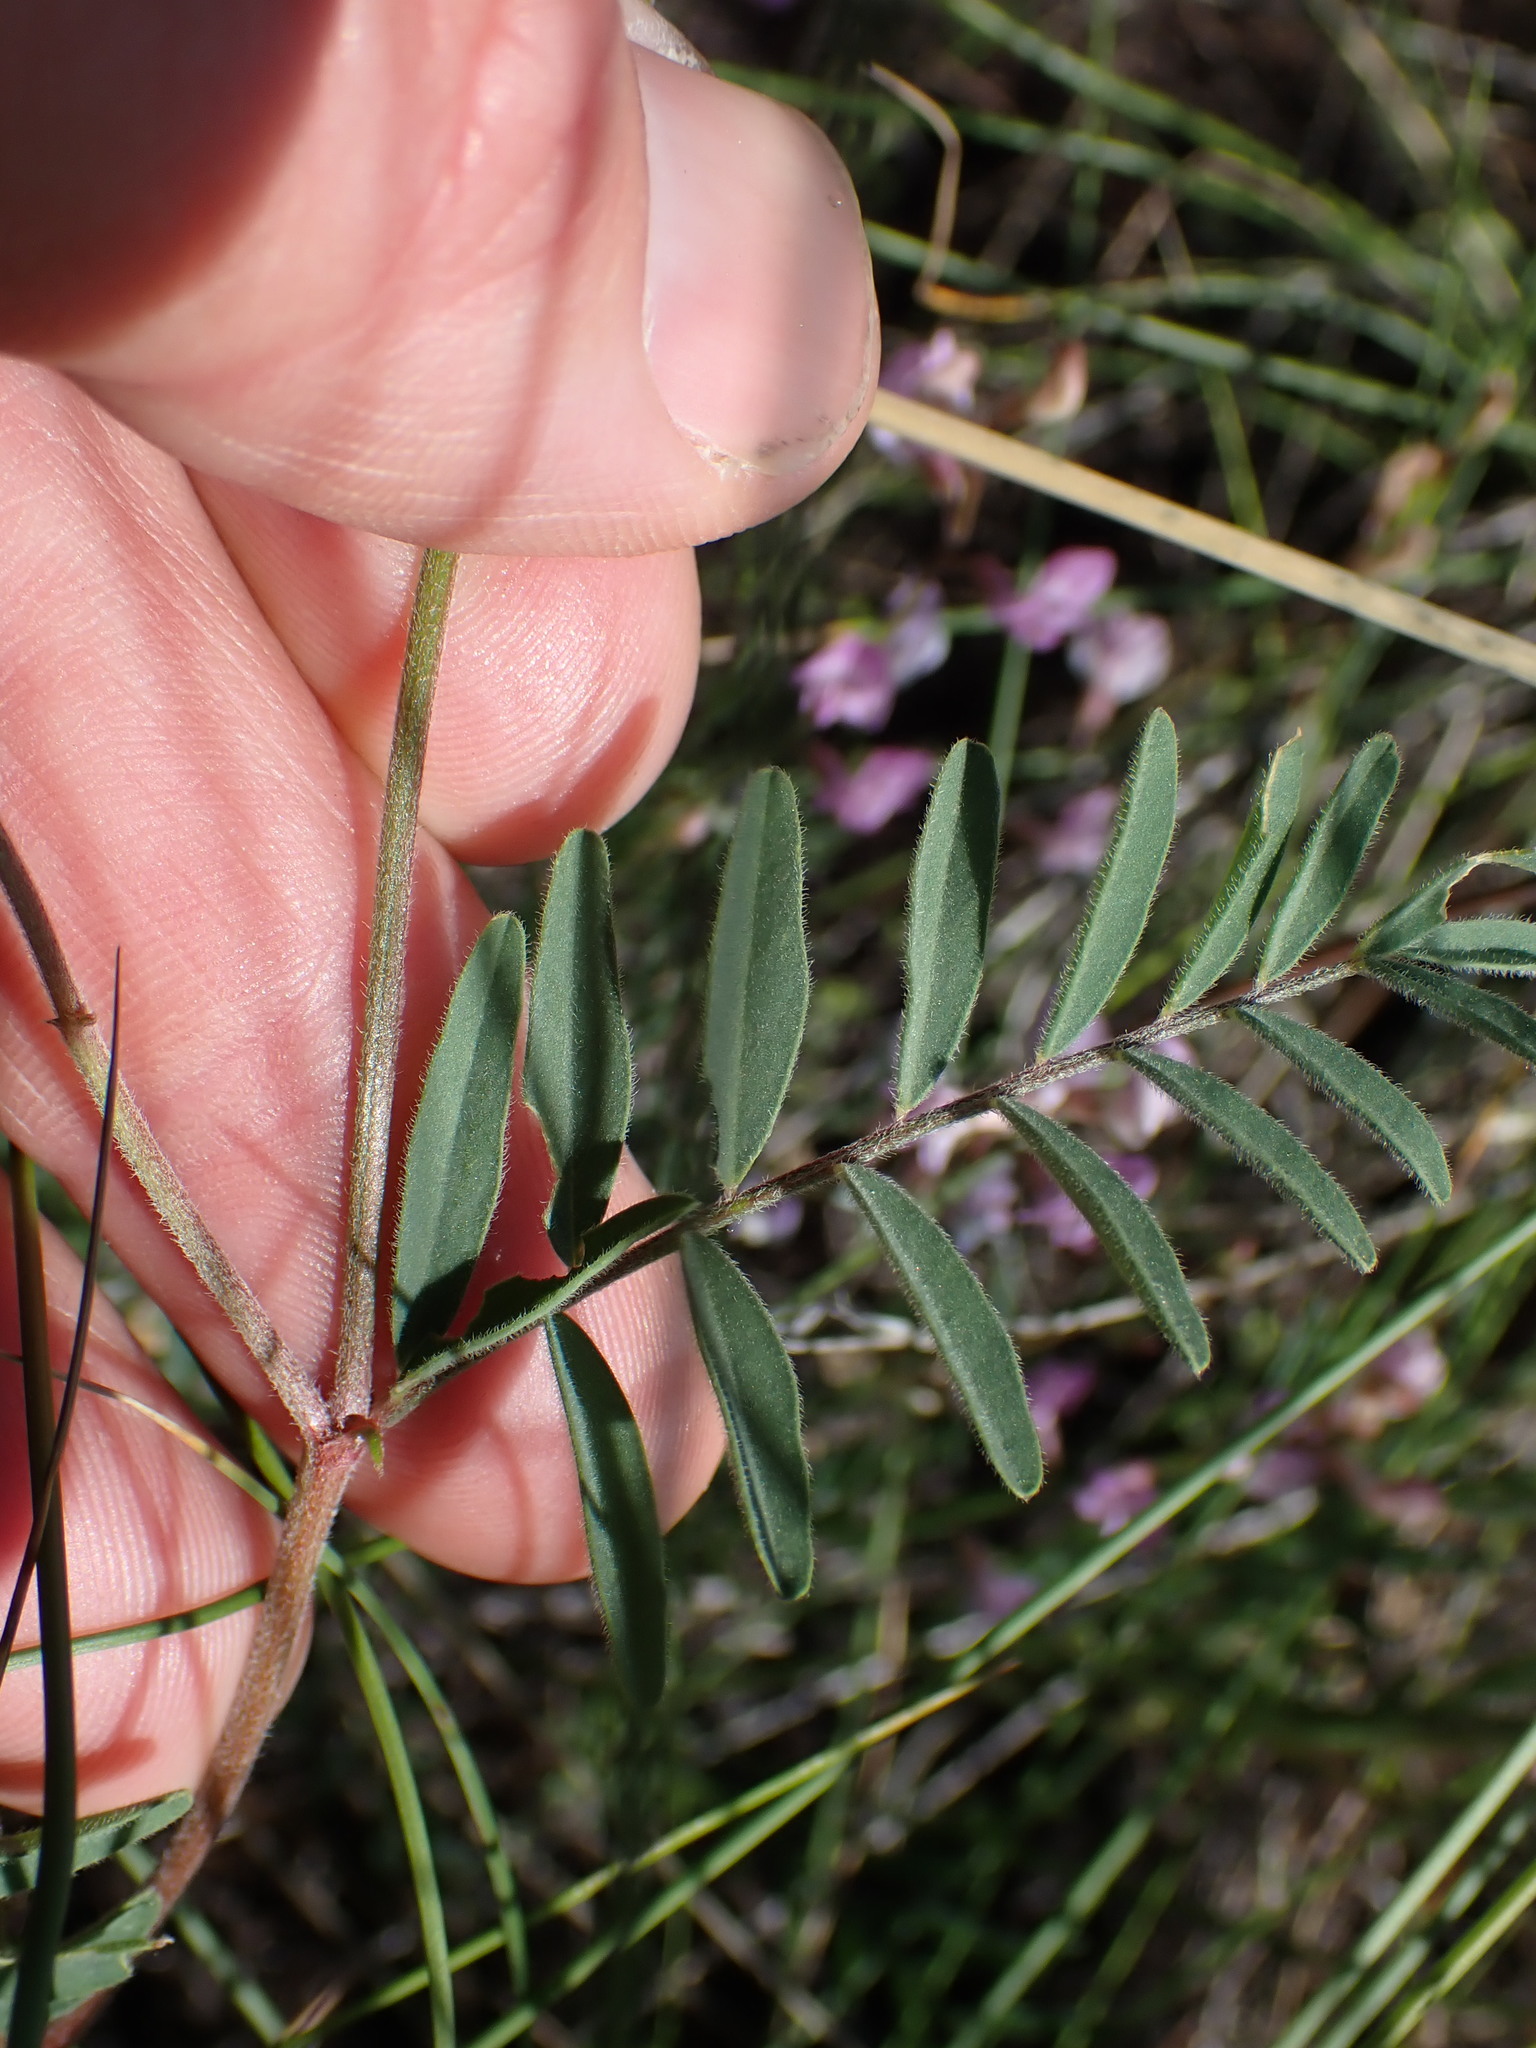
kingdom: Plantae
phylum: Tracheophyta
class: Magnoliopsida
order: Fabales
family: Fabaceae
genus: Astragalus
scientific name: Astragalus collinus
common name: Hill milk-vetch
